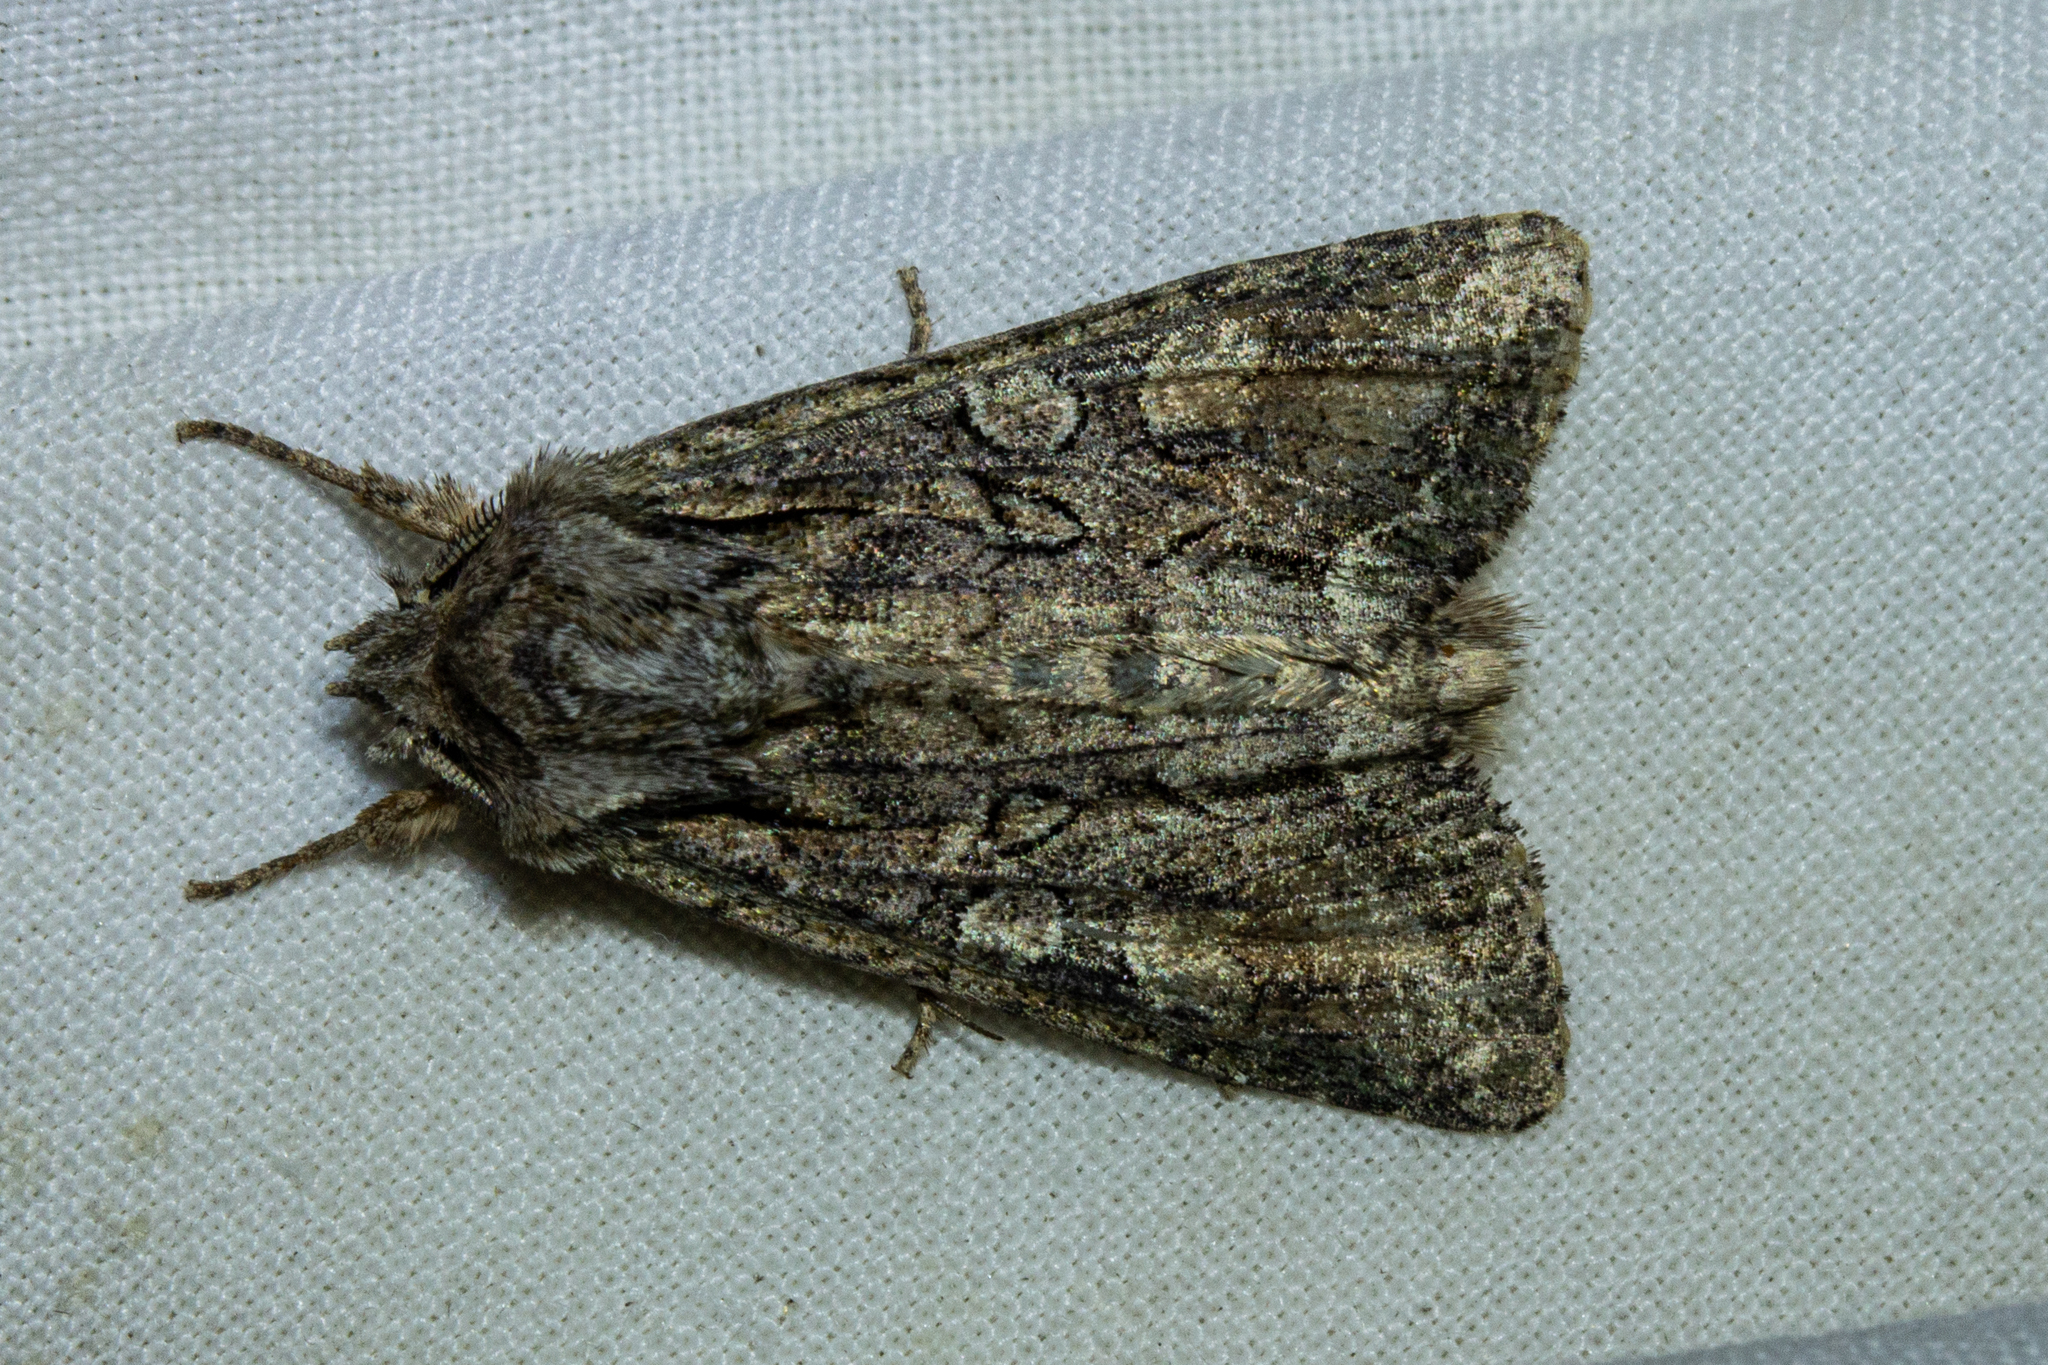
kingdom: Animalia
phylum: Arthropoda
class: Insecta
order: Lepidoptera
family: Noctuidae
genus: Ichneutica
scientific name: Ichneutica mutans
